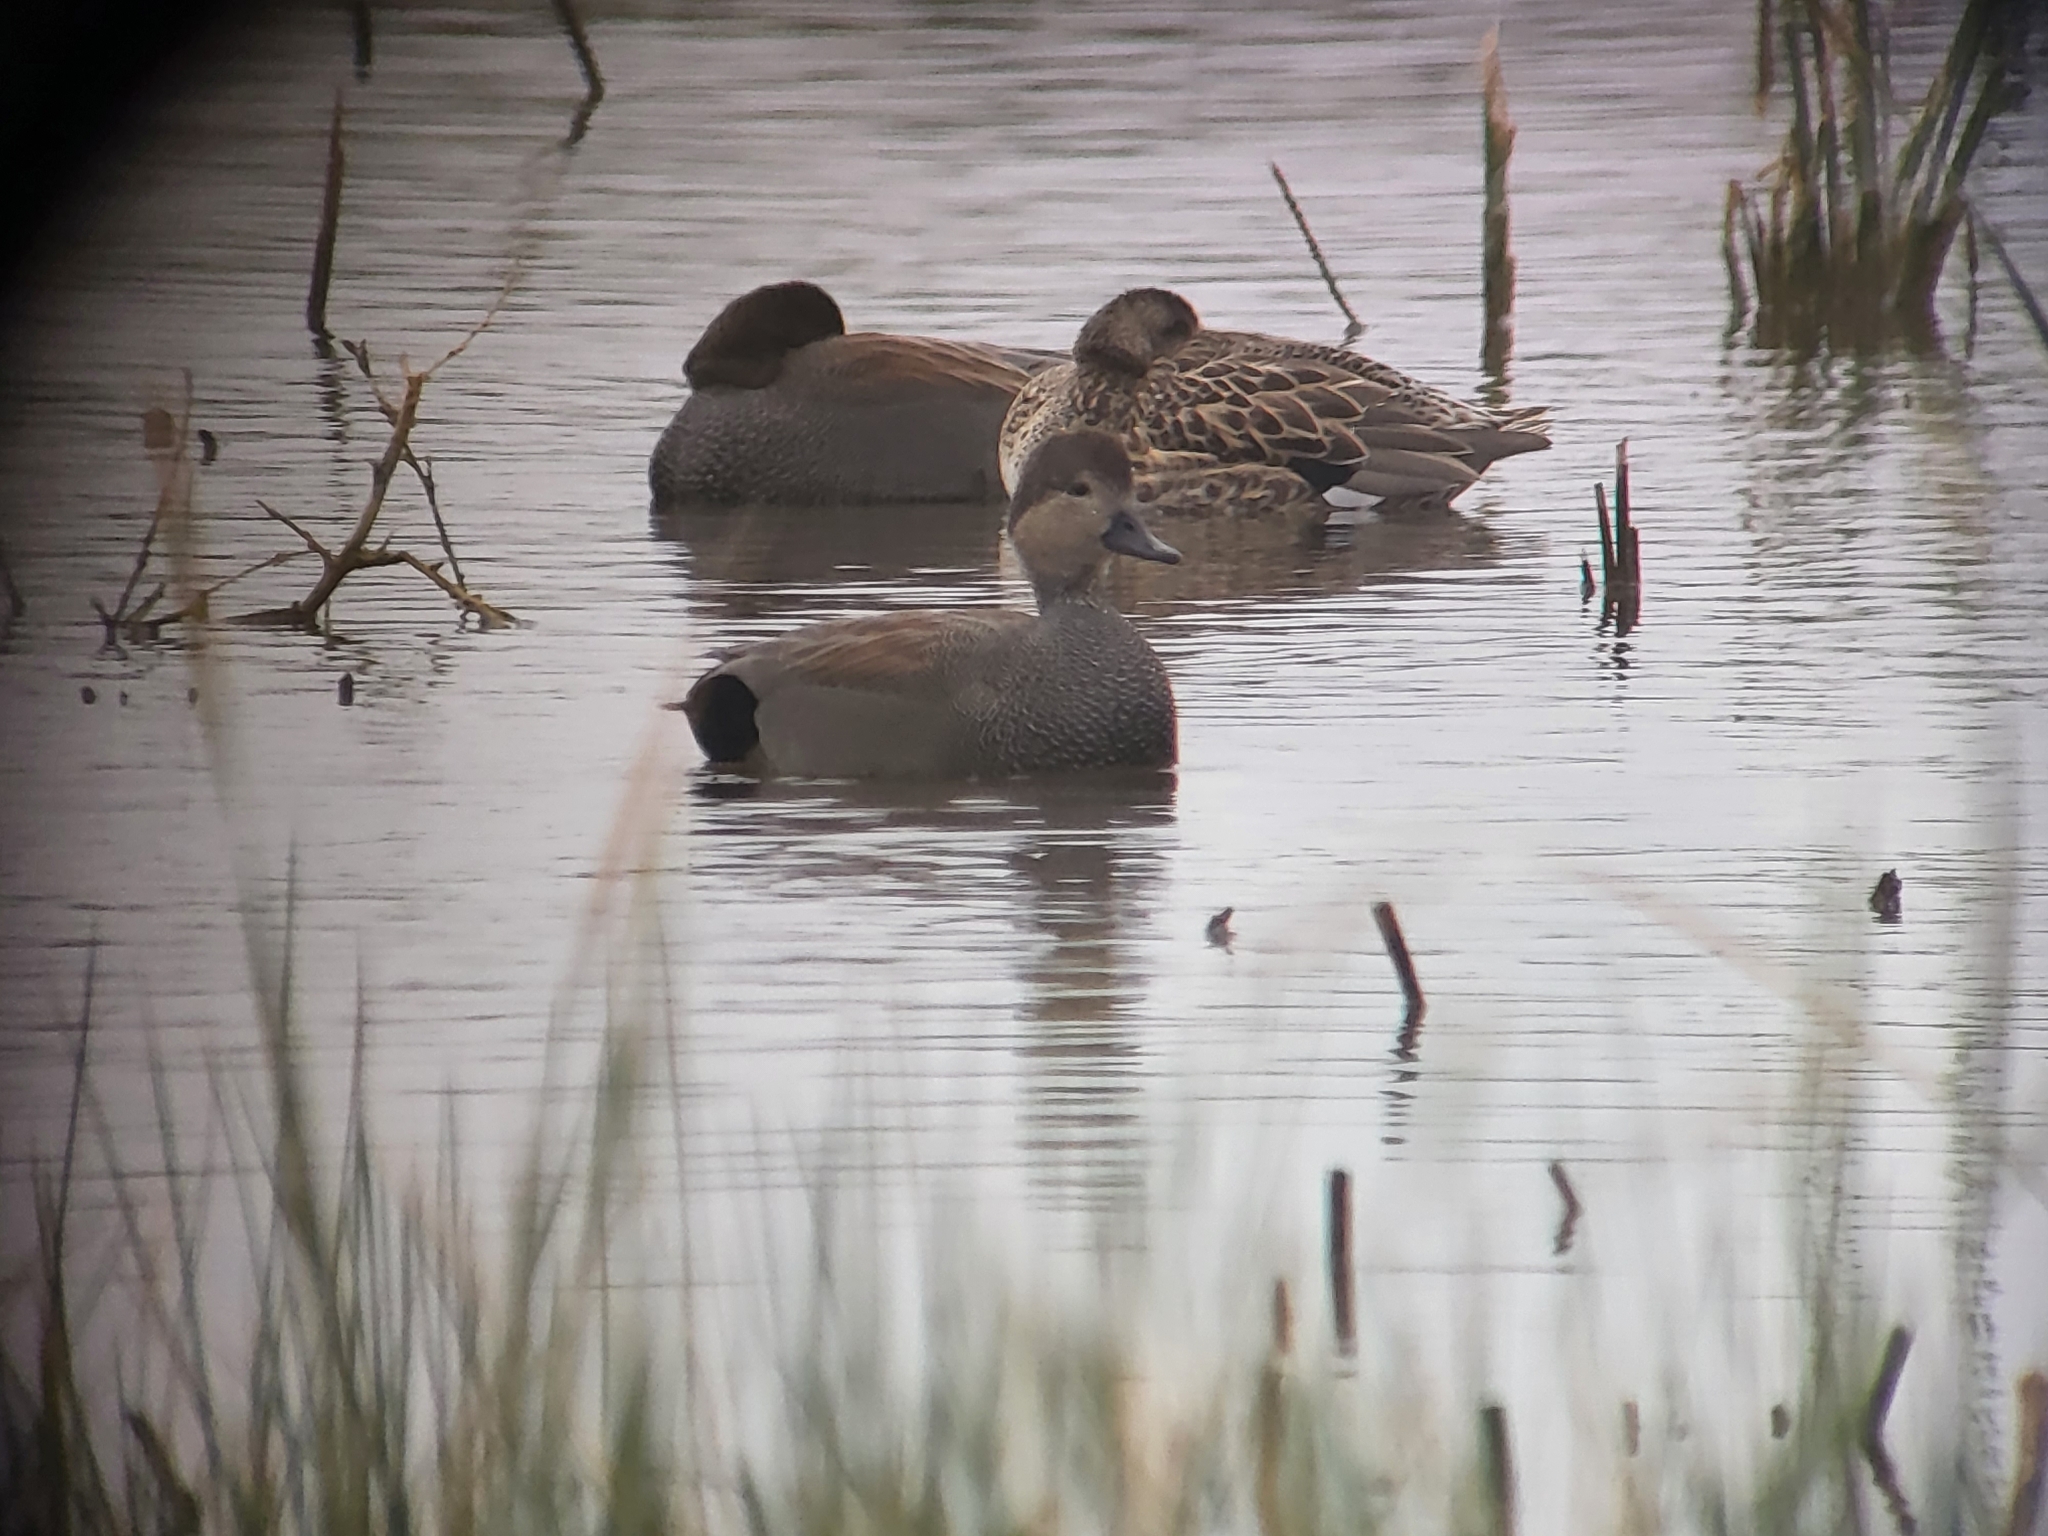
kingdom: Animalia
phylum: Chordata
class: Aves
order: Anseriformes
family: Anatidae
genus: Mareca
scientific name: Mareca strepera
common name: Gadwall
